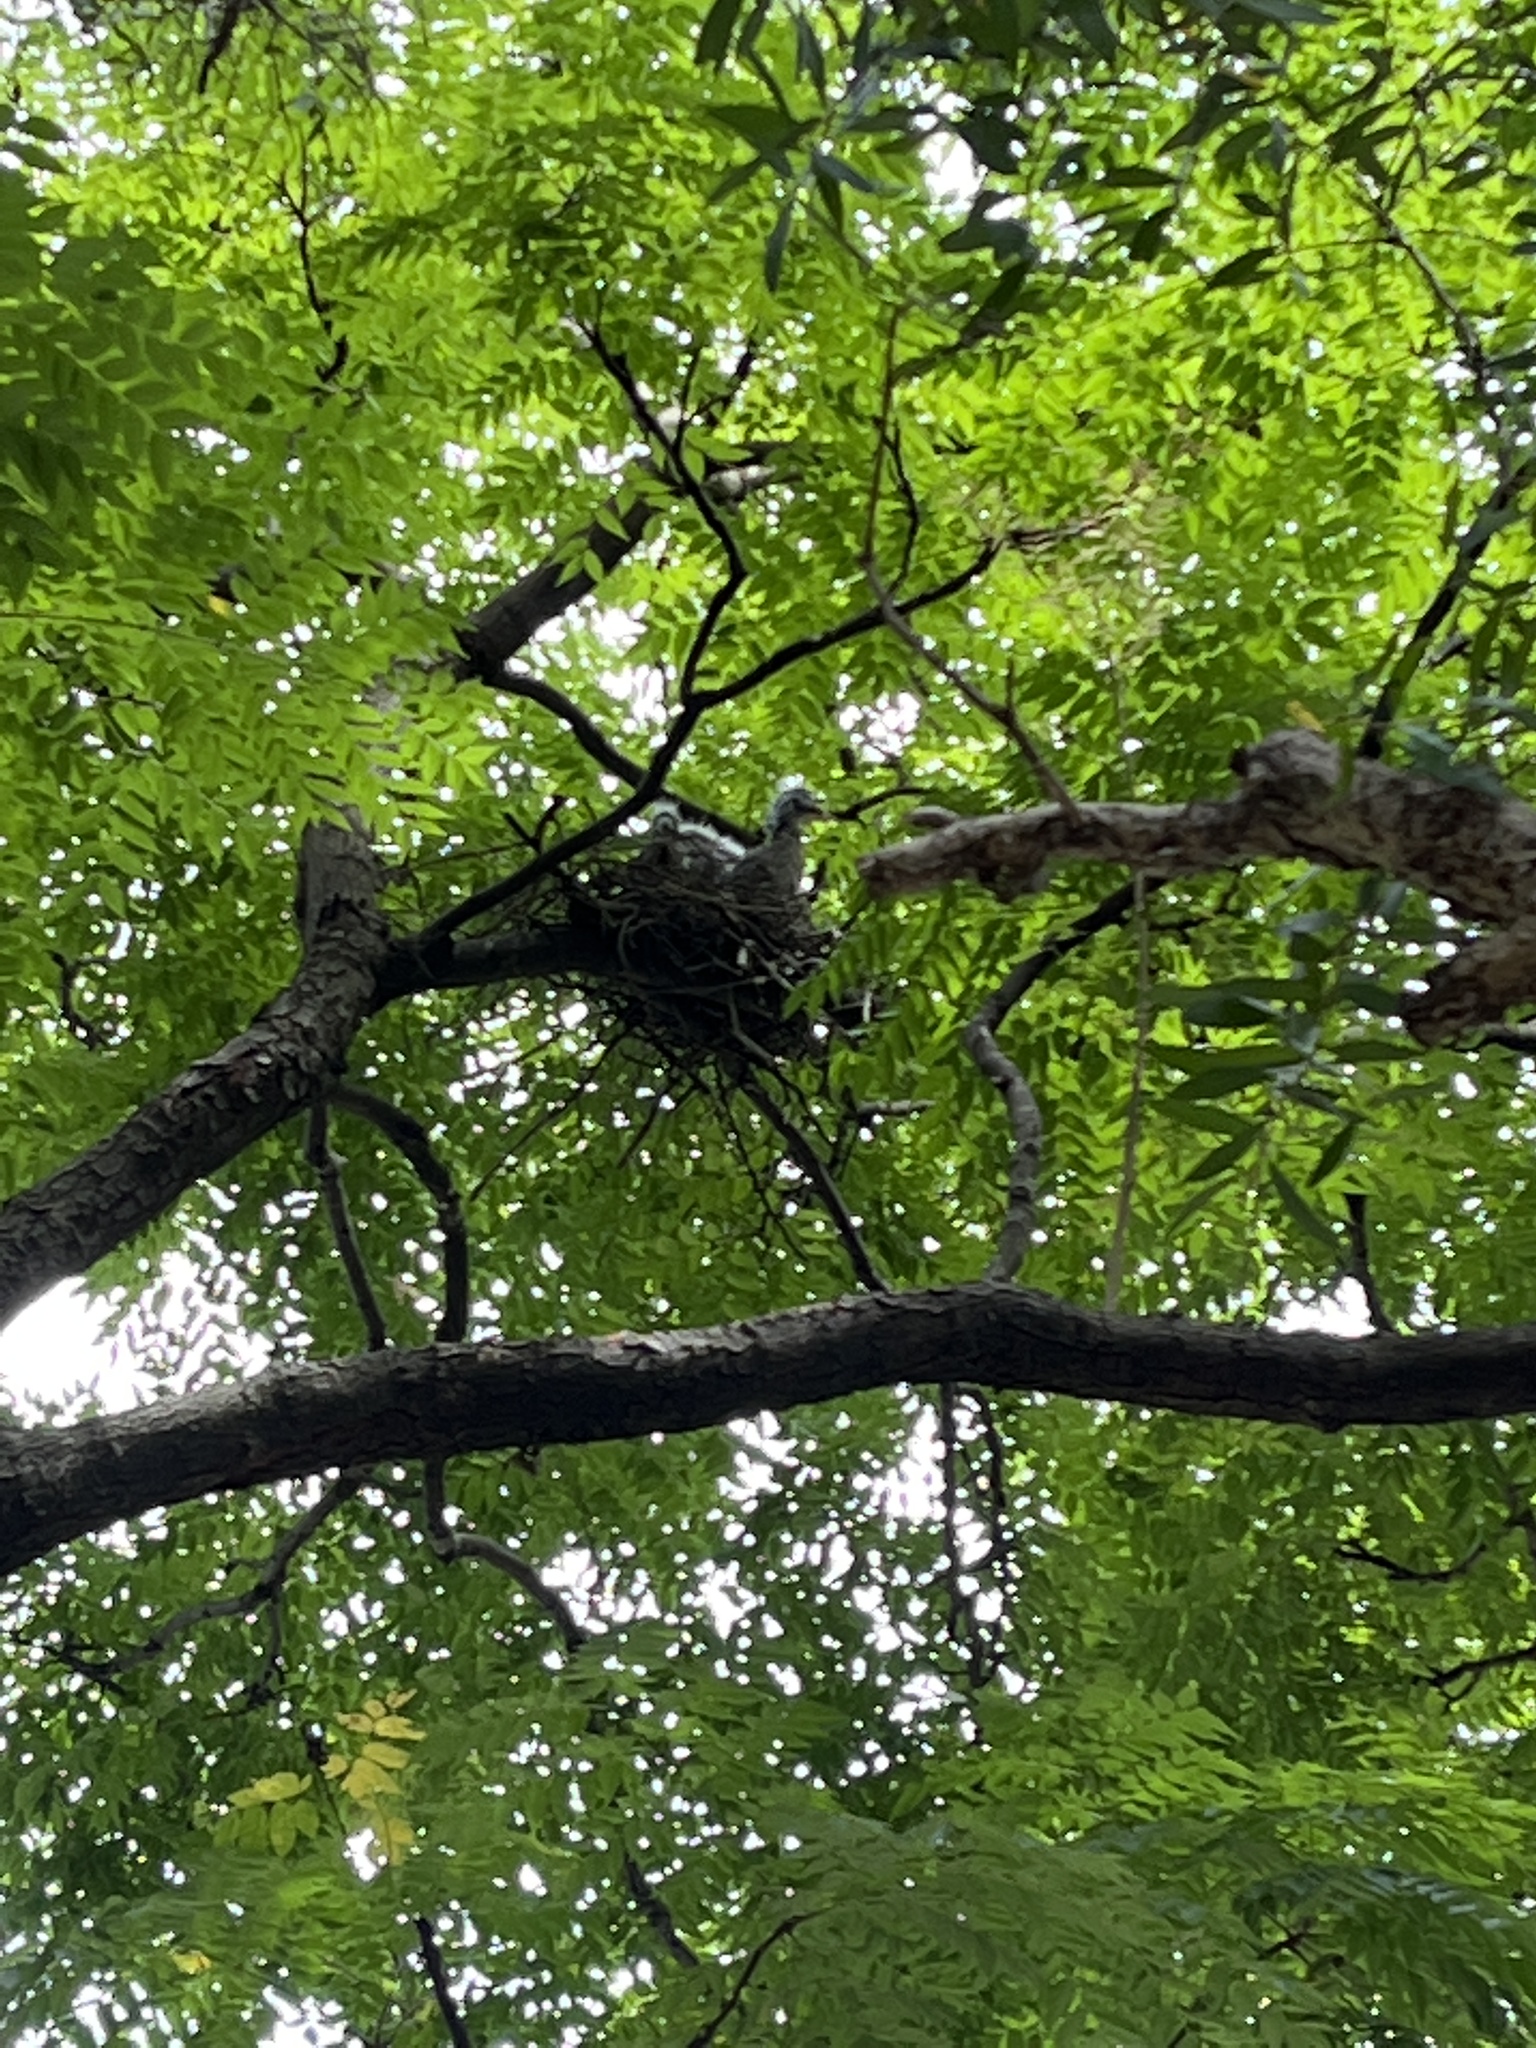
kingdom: Animalia
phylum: Chordata
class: Aves
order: Pelecaniformes
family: Ardeidae
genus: Gorsachius
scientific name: Gorsachius melanolophus
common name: Malayan night heron
